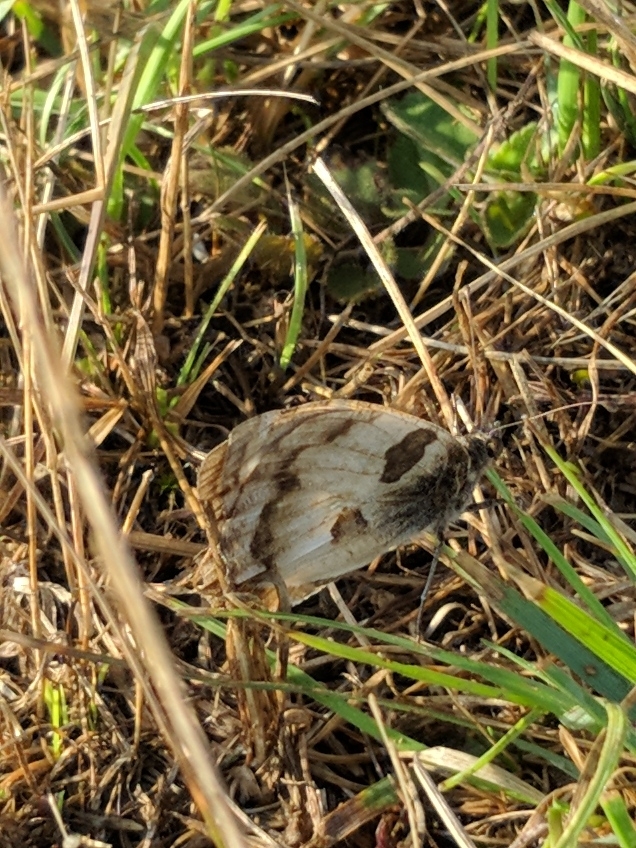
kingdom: Animalia
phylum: Arthropoda
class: Insecta
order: Lepidoptera
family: Nymphalidae
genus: Satyrus
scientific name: Satyrus briseis
